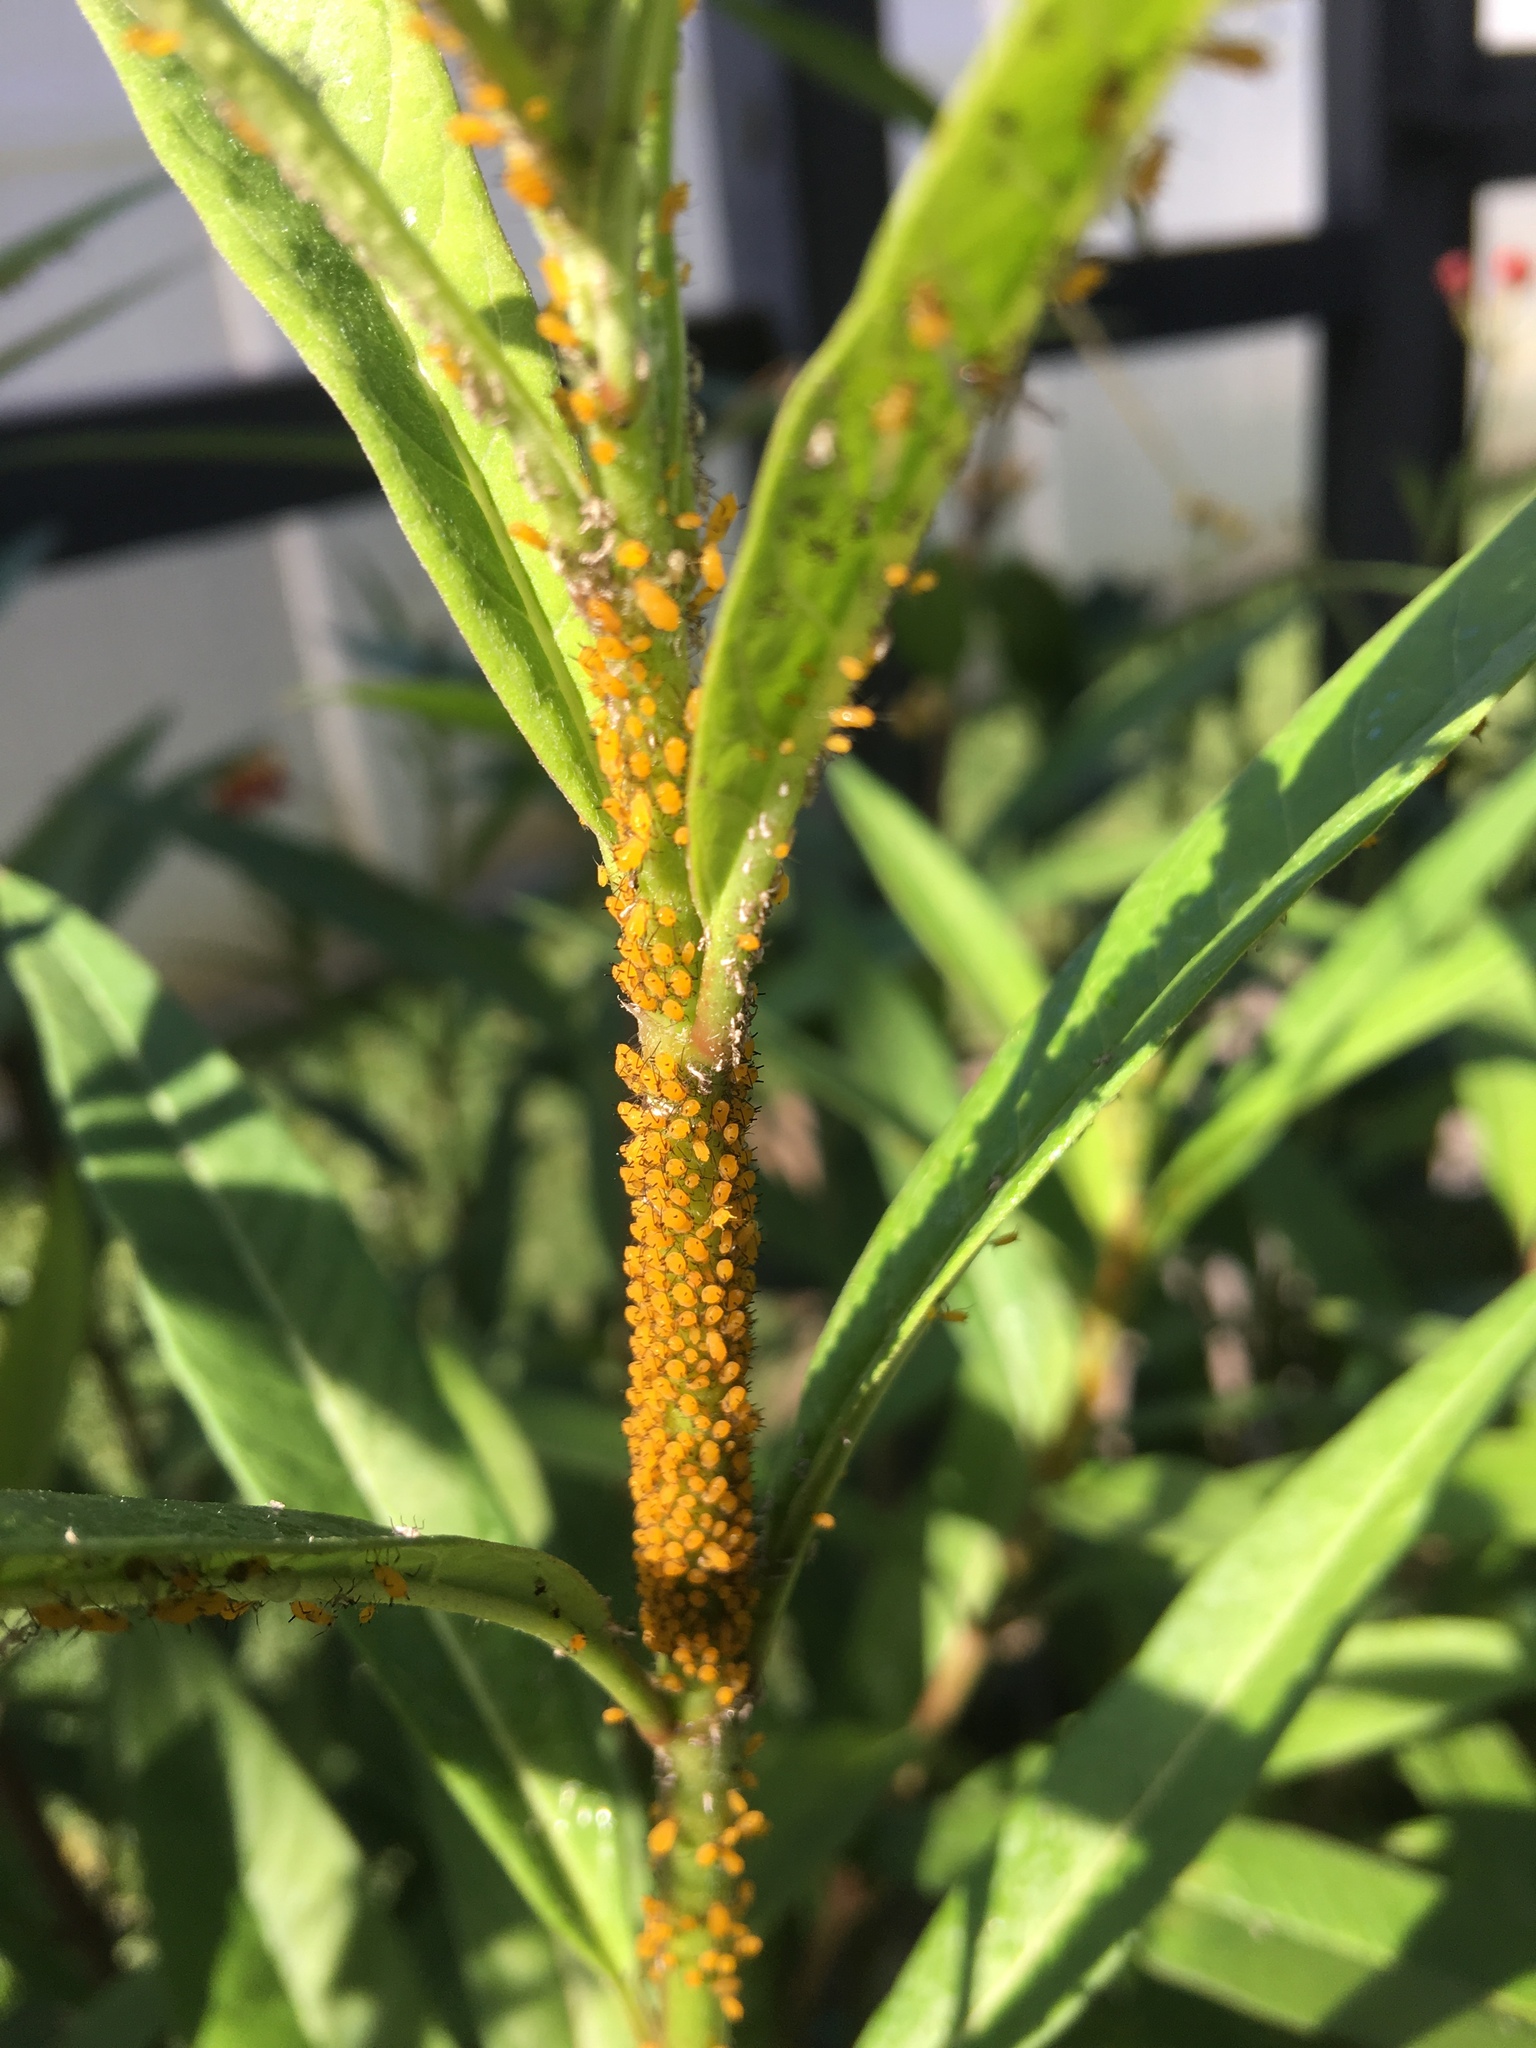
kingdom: Animalia
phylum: Arthropoda
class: Insecta
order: Hemiptera
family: Aphididae
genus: Aphis
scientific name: Aphis nerii
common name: Oleander aphid
